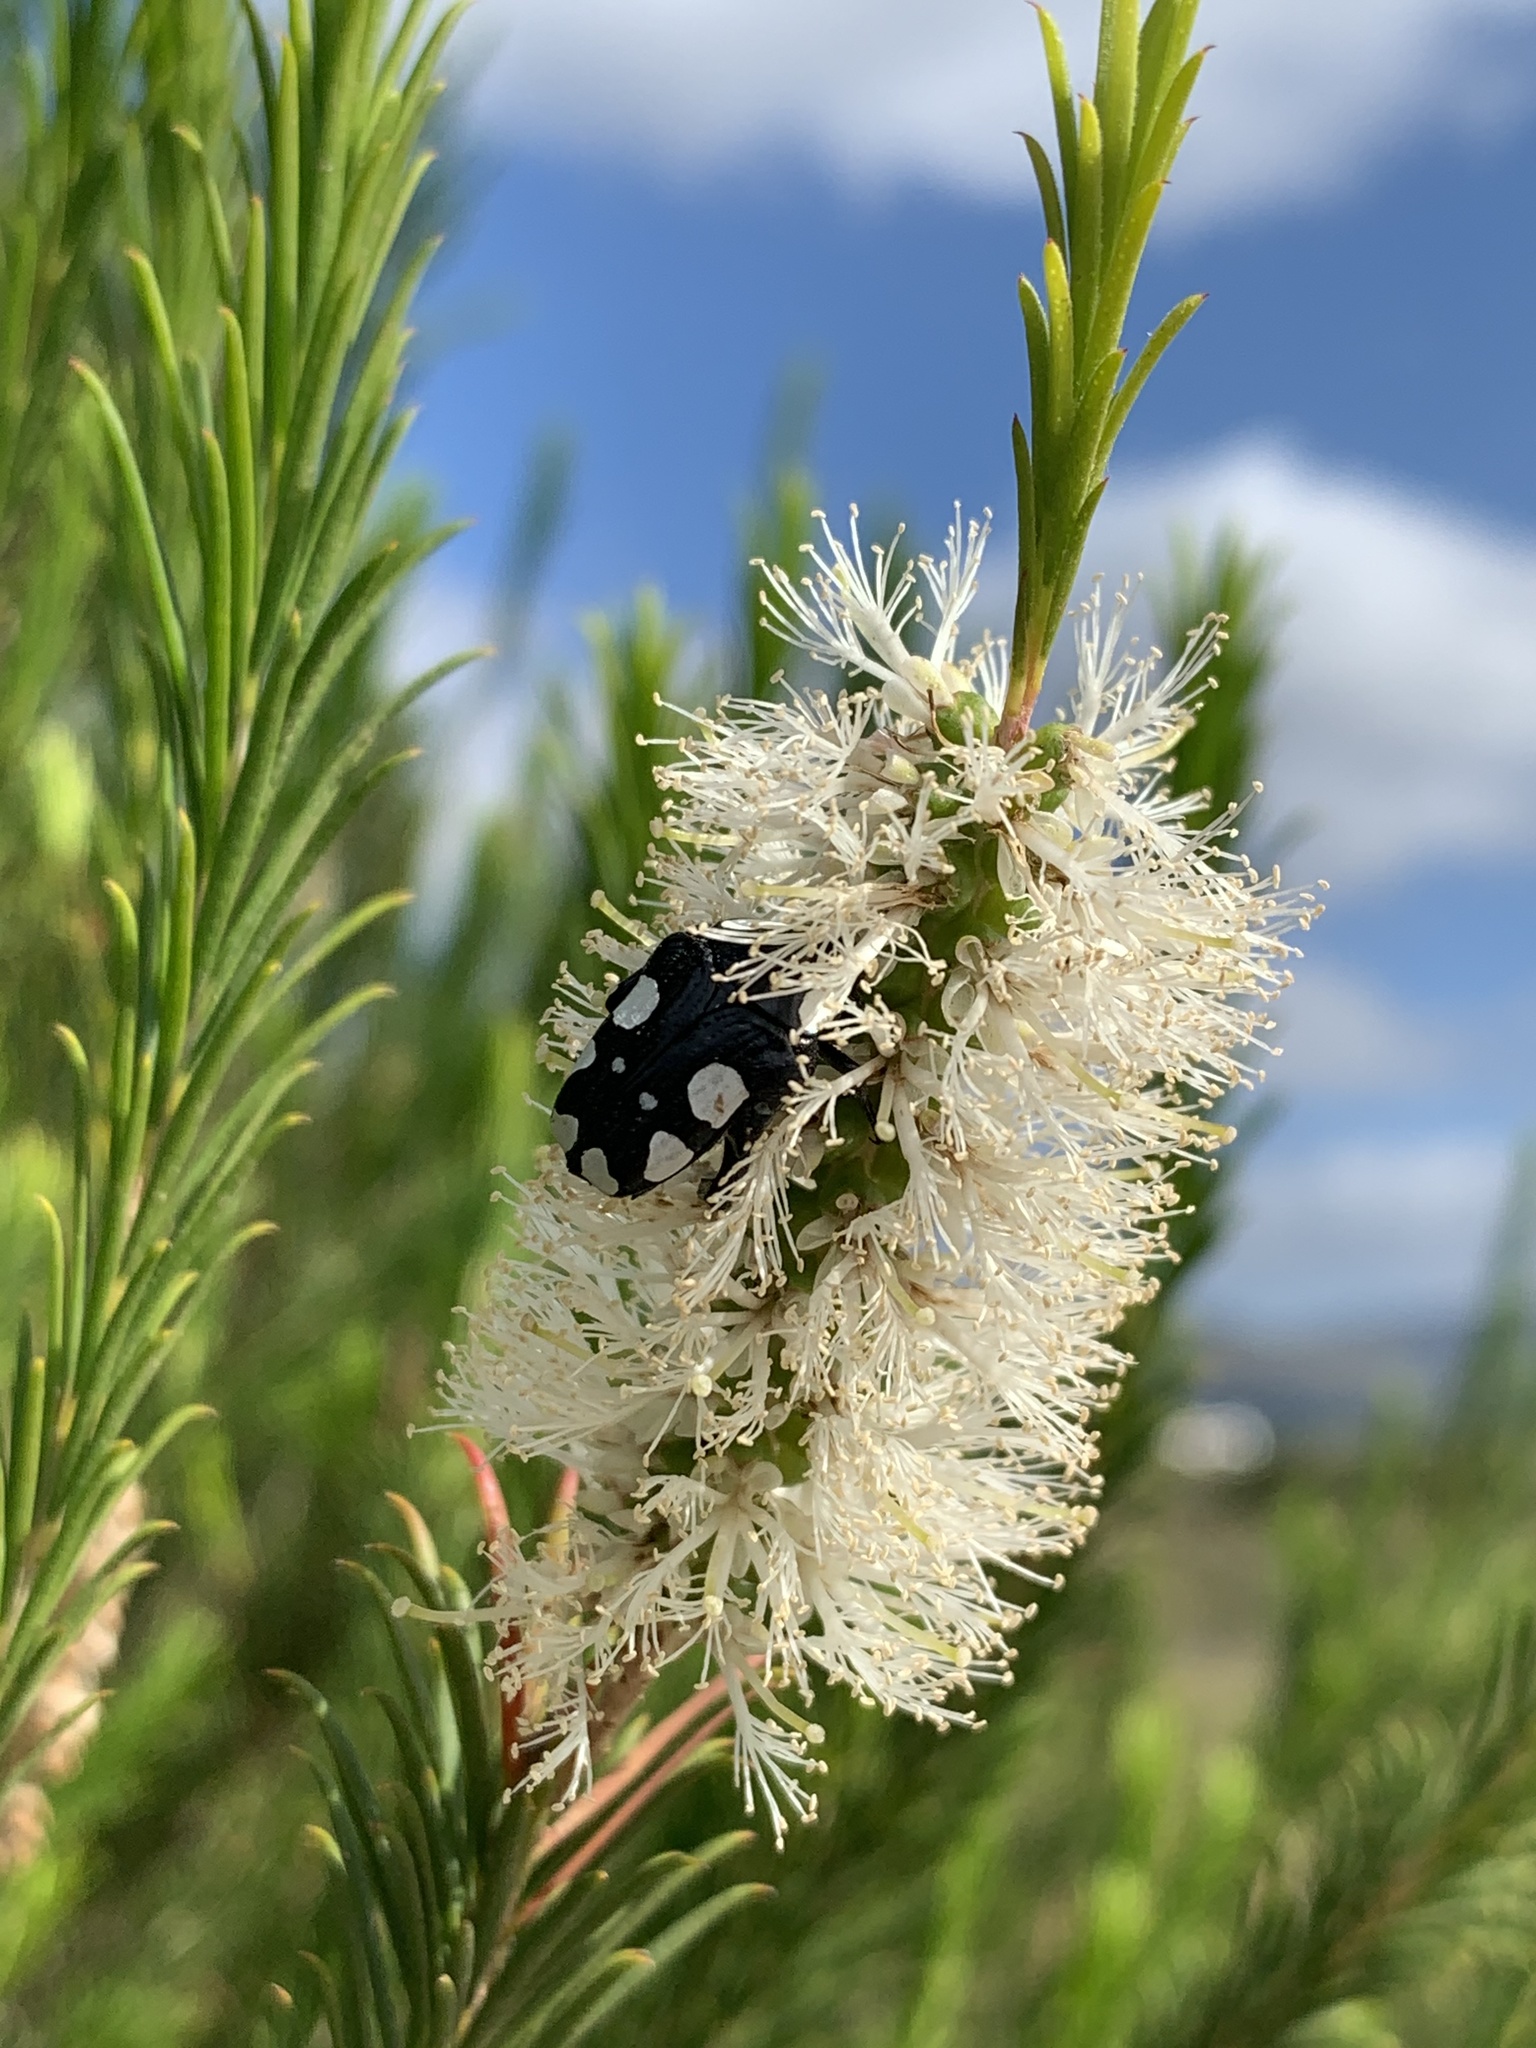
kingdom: Animalia
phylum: Arthropoda
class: Insecta
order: Coleoptera
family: Scarabaeidae
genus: Mausoleopsis
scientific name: Mausoleopsis amabilis
